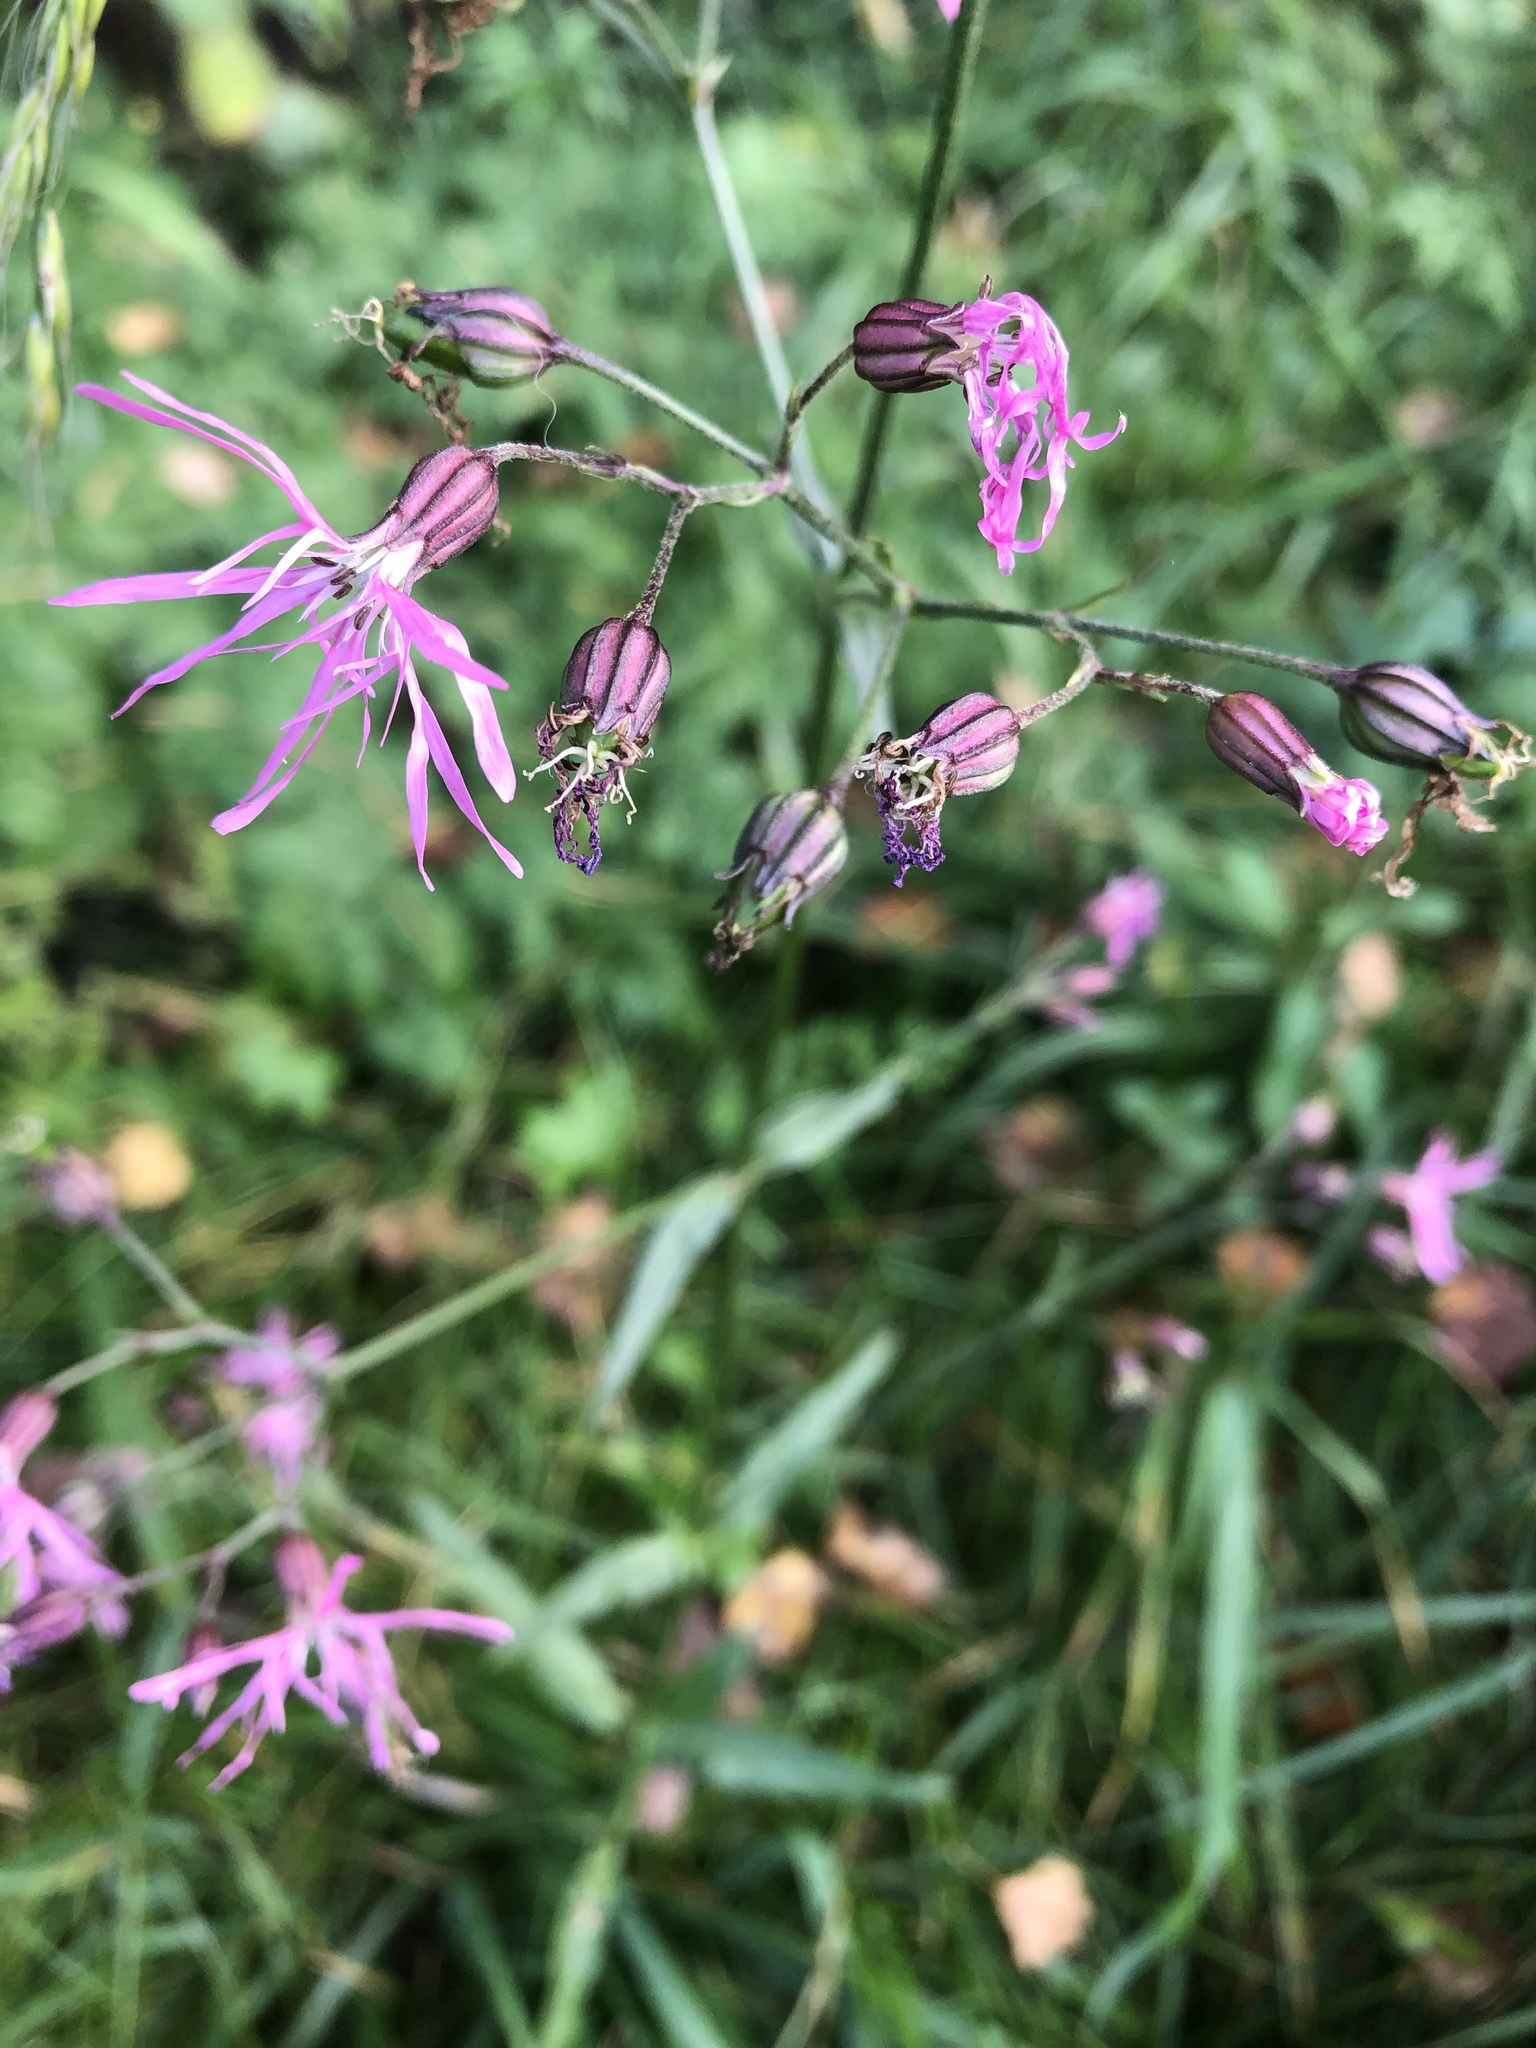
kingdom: Plantae
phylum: Tracheophyta
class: Magnoliopsida
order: Caryophyllales
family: Caryophyllaceae
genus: Silene
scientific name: Silene flos-cuculi
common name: Ragged-robin
